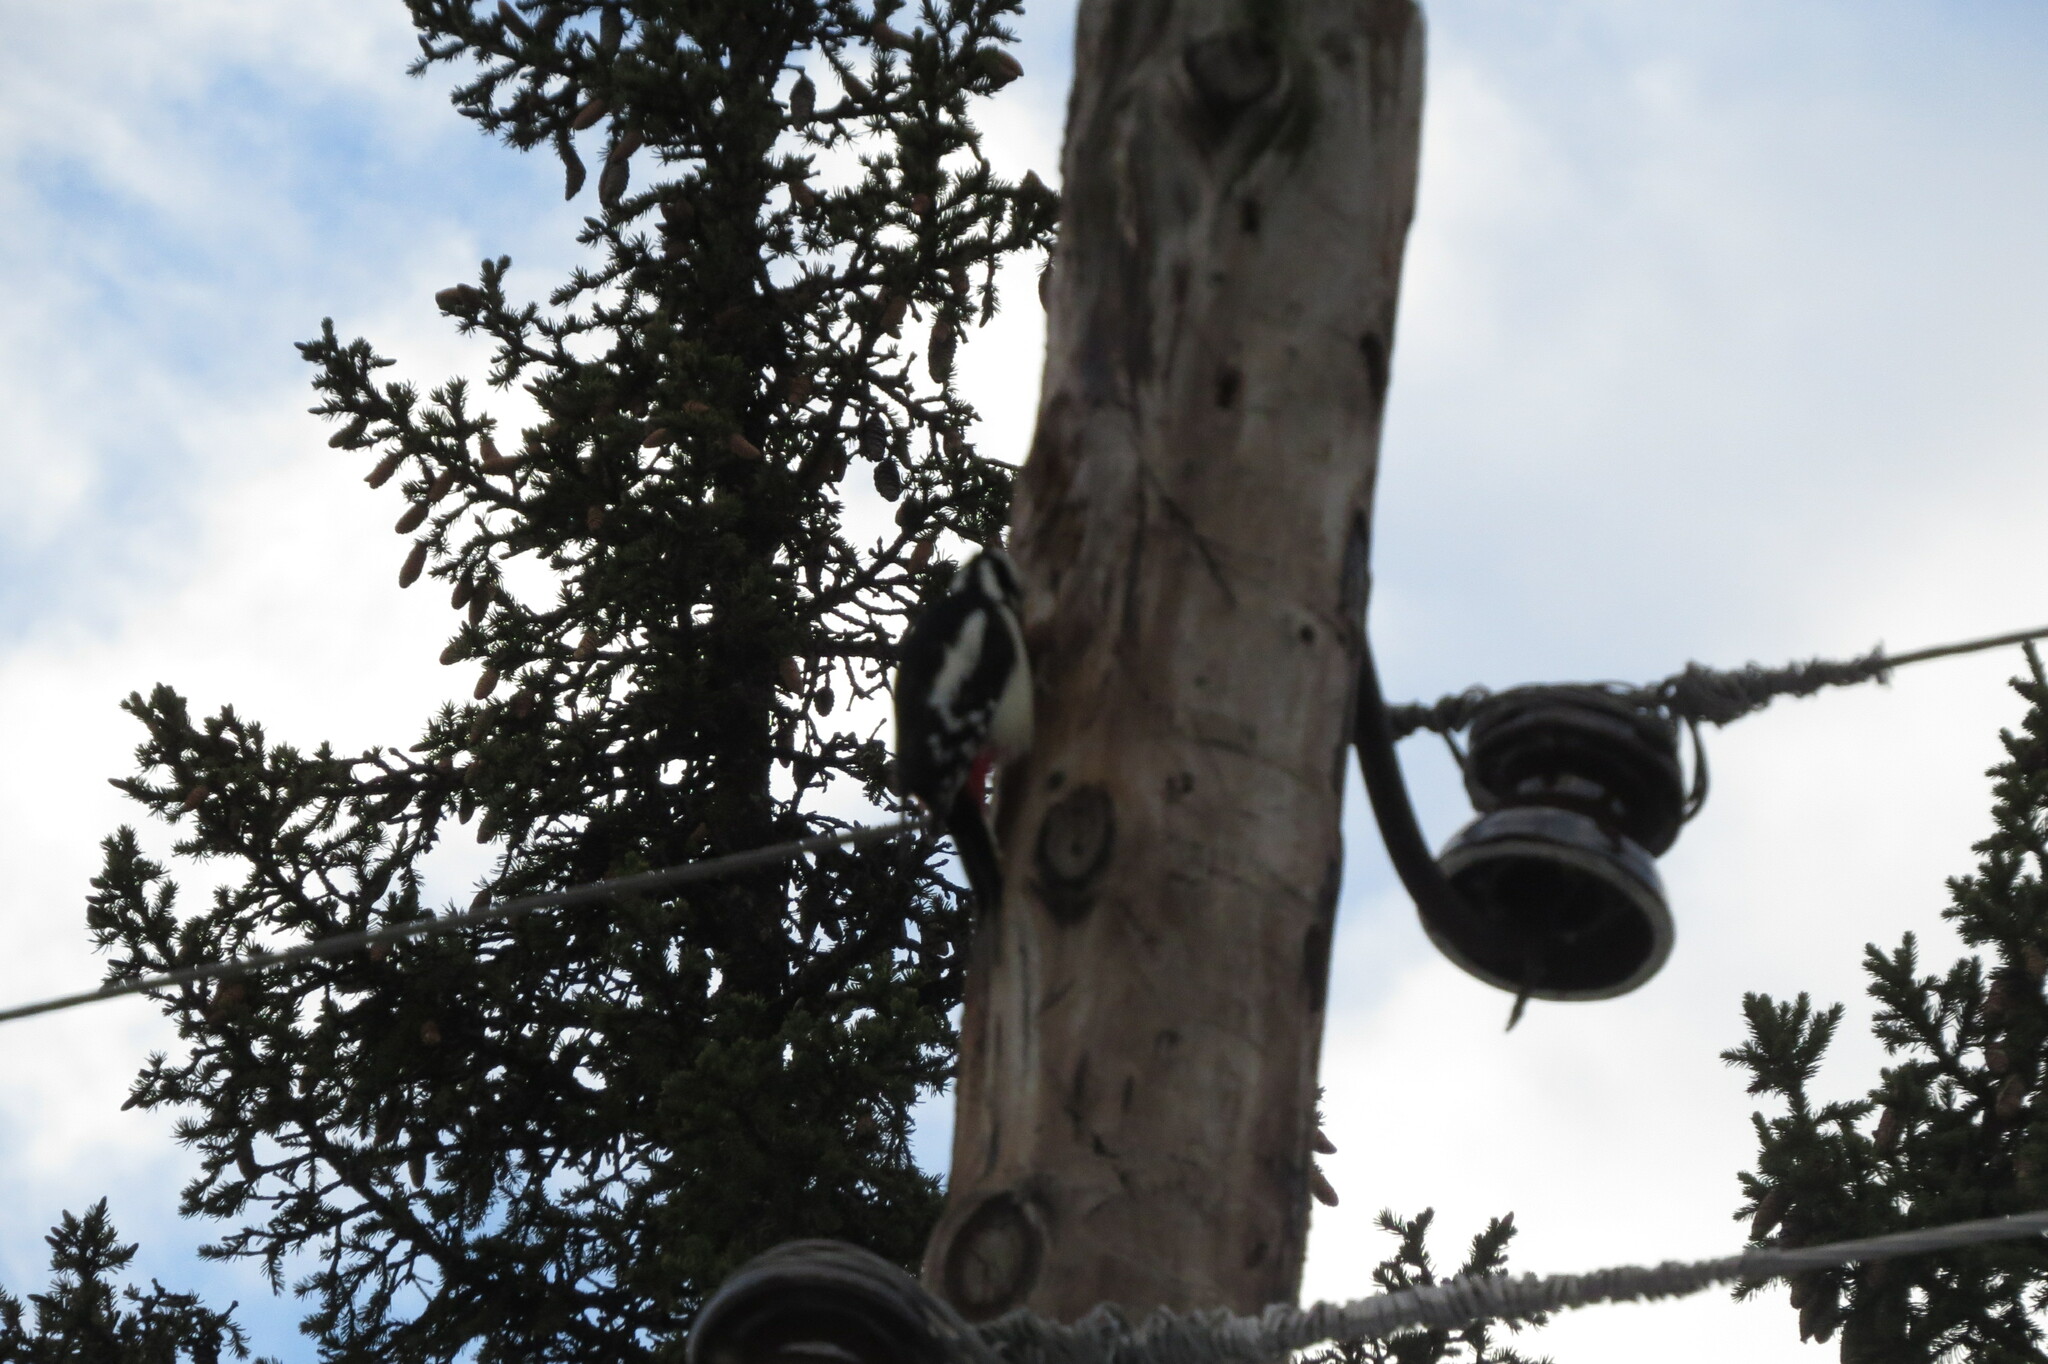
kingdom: Animalia
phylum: Chordata
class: Aves
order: Piciformes
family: Picidae
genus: Dendrocopos
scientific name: Dendrocopos major
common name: Great spotted woodpecker
